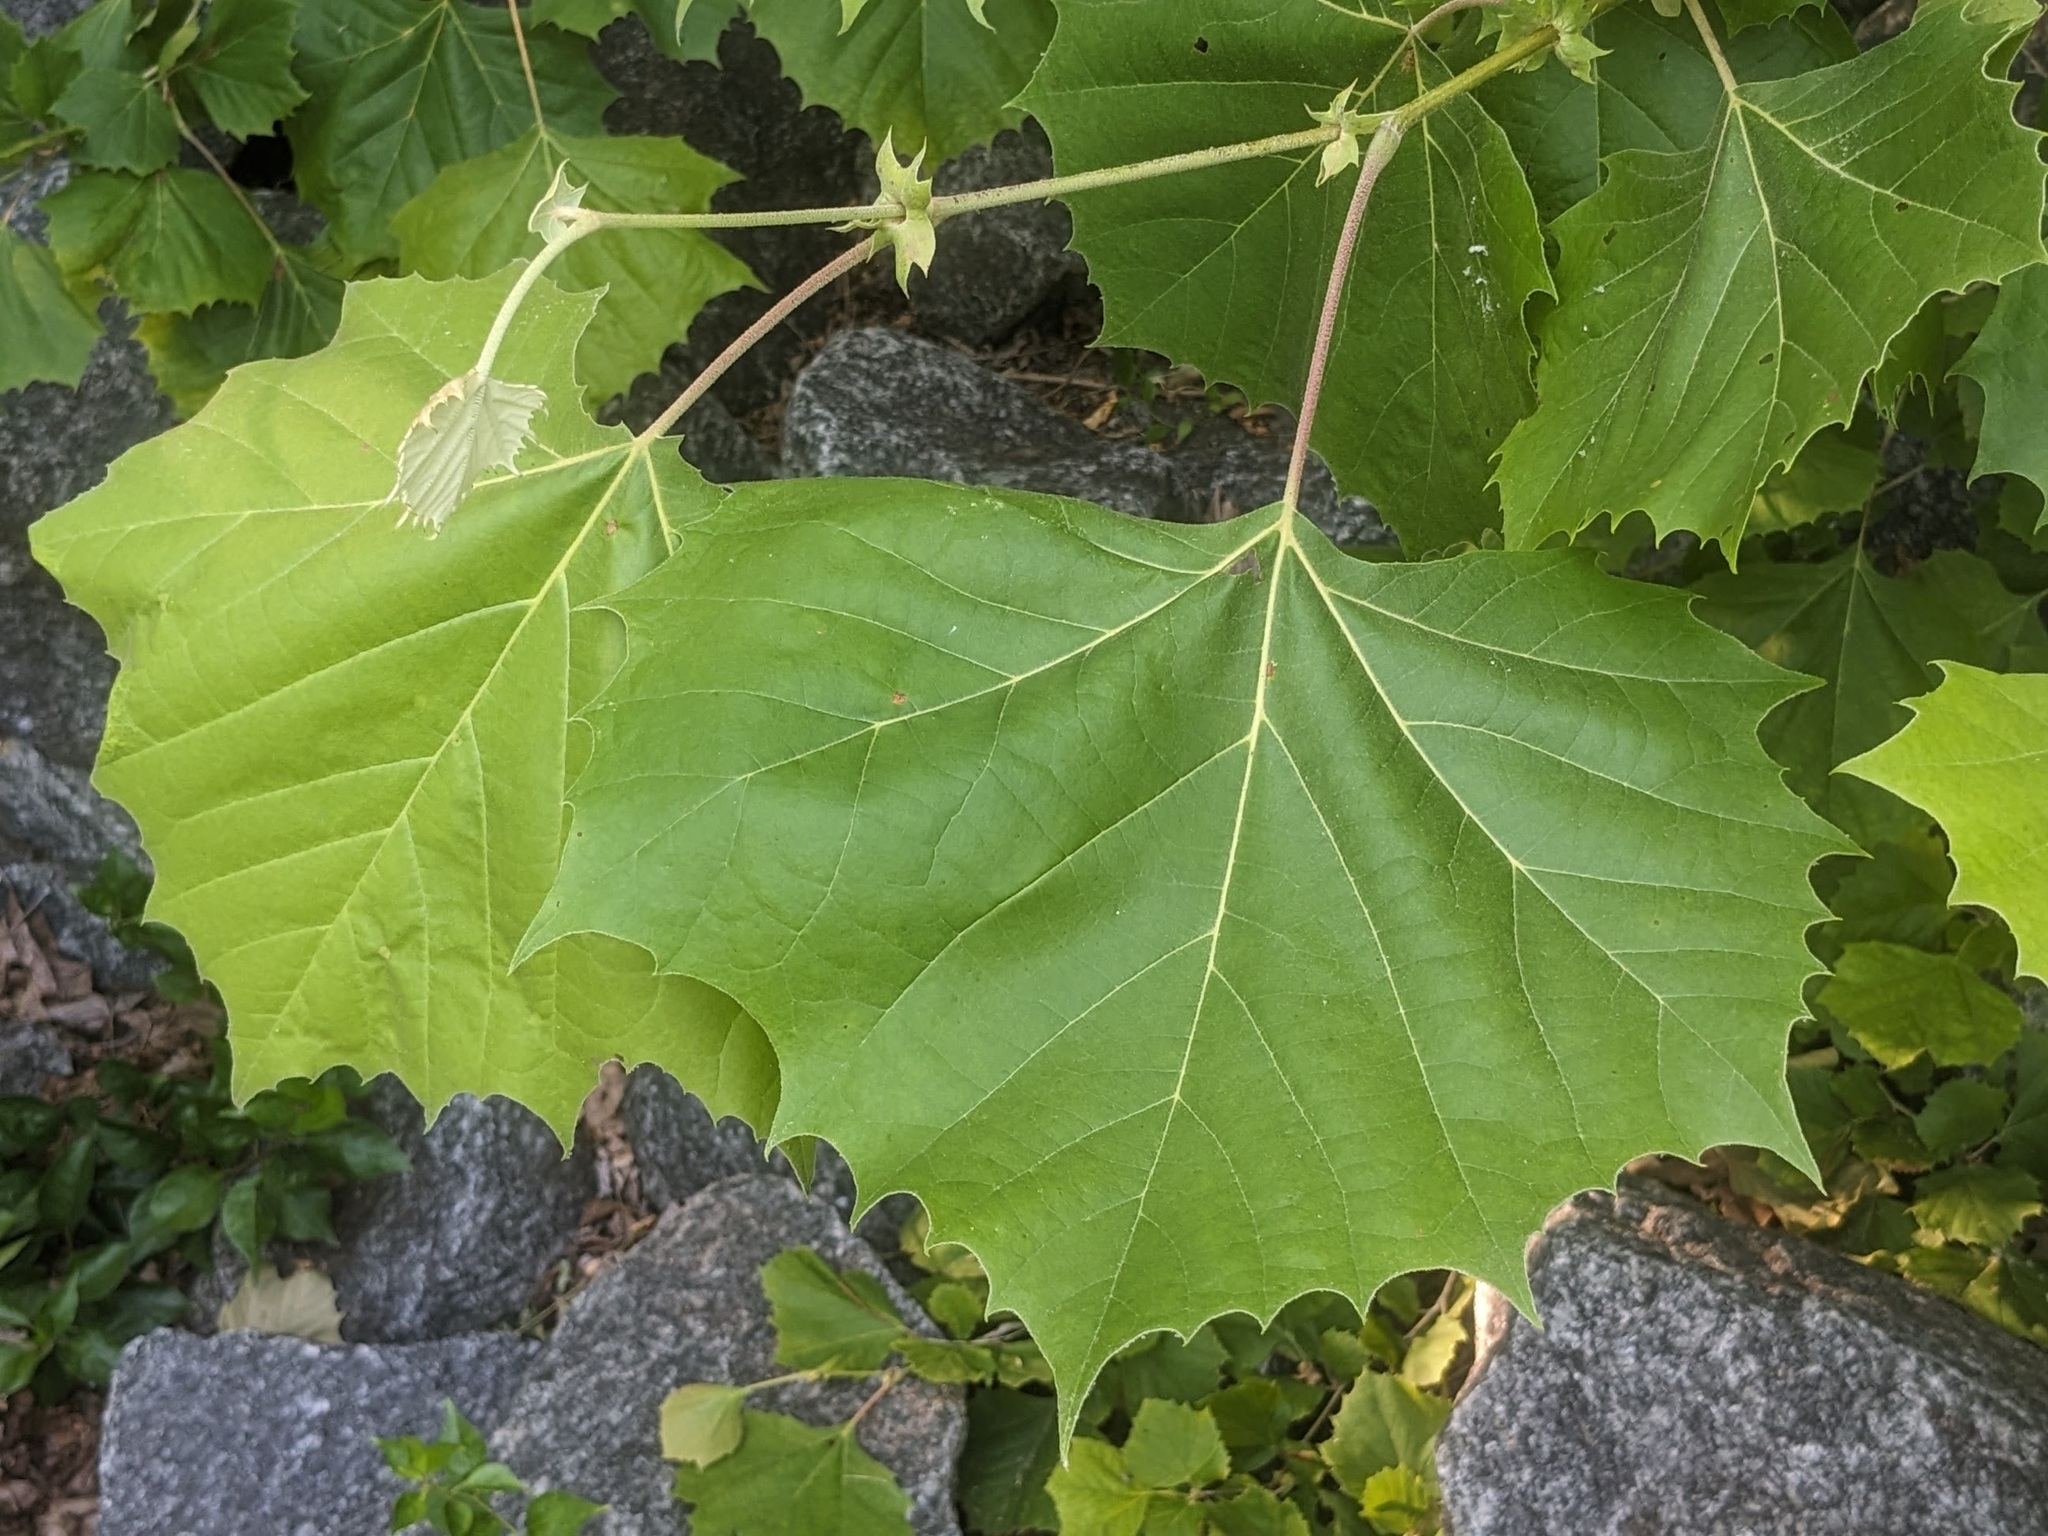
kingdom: Plantae
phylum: Tracheophyta
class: Magnoliopsida
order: Proteales
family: Platanaceae
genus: Platanus
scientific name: Platanus occidentalis
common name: American sycamore
